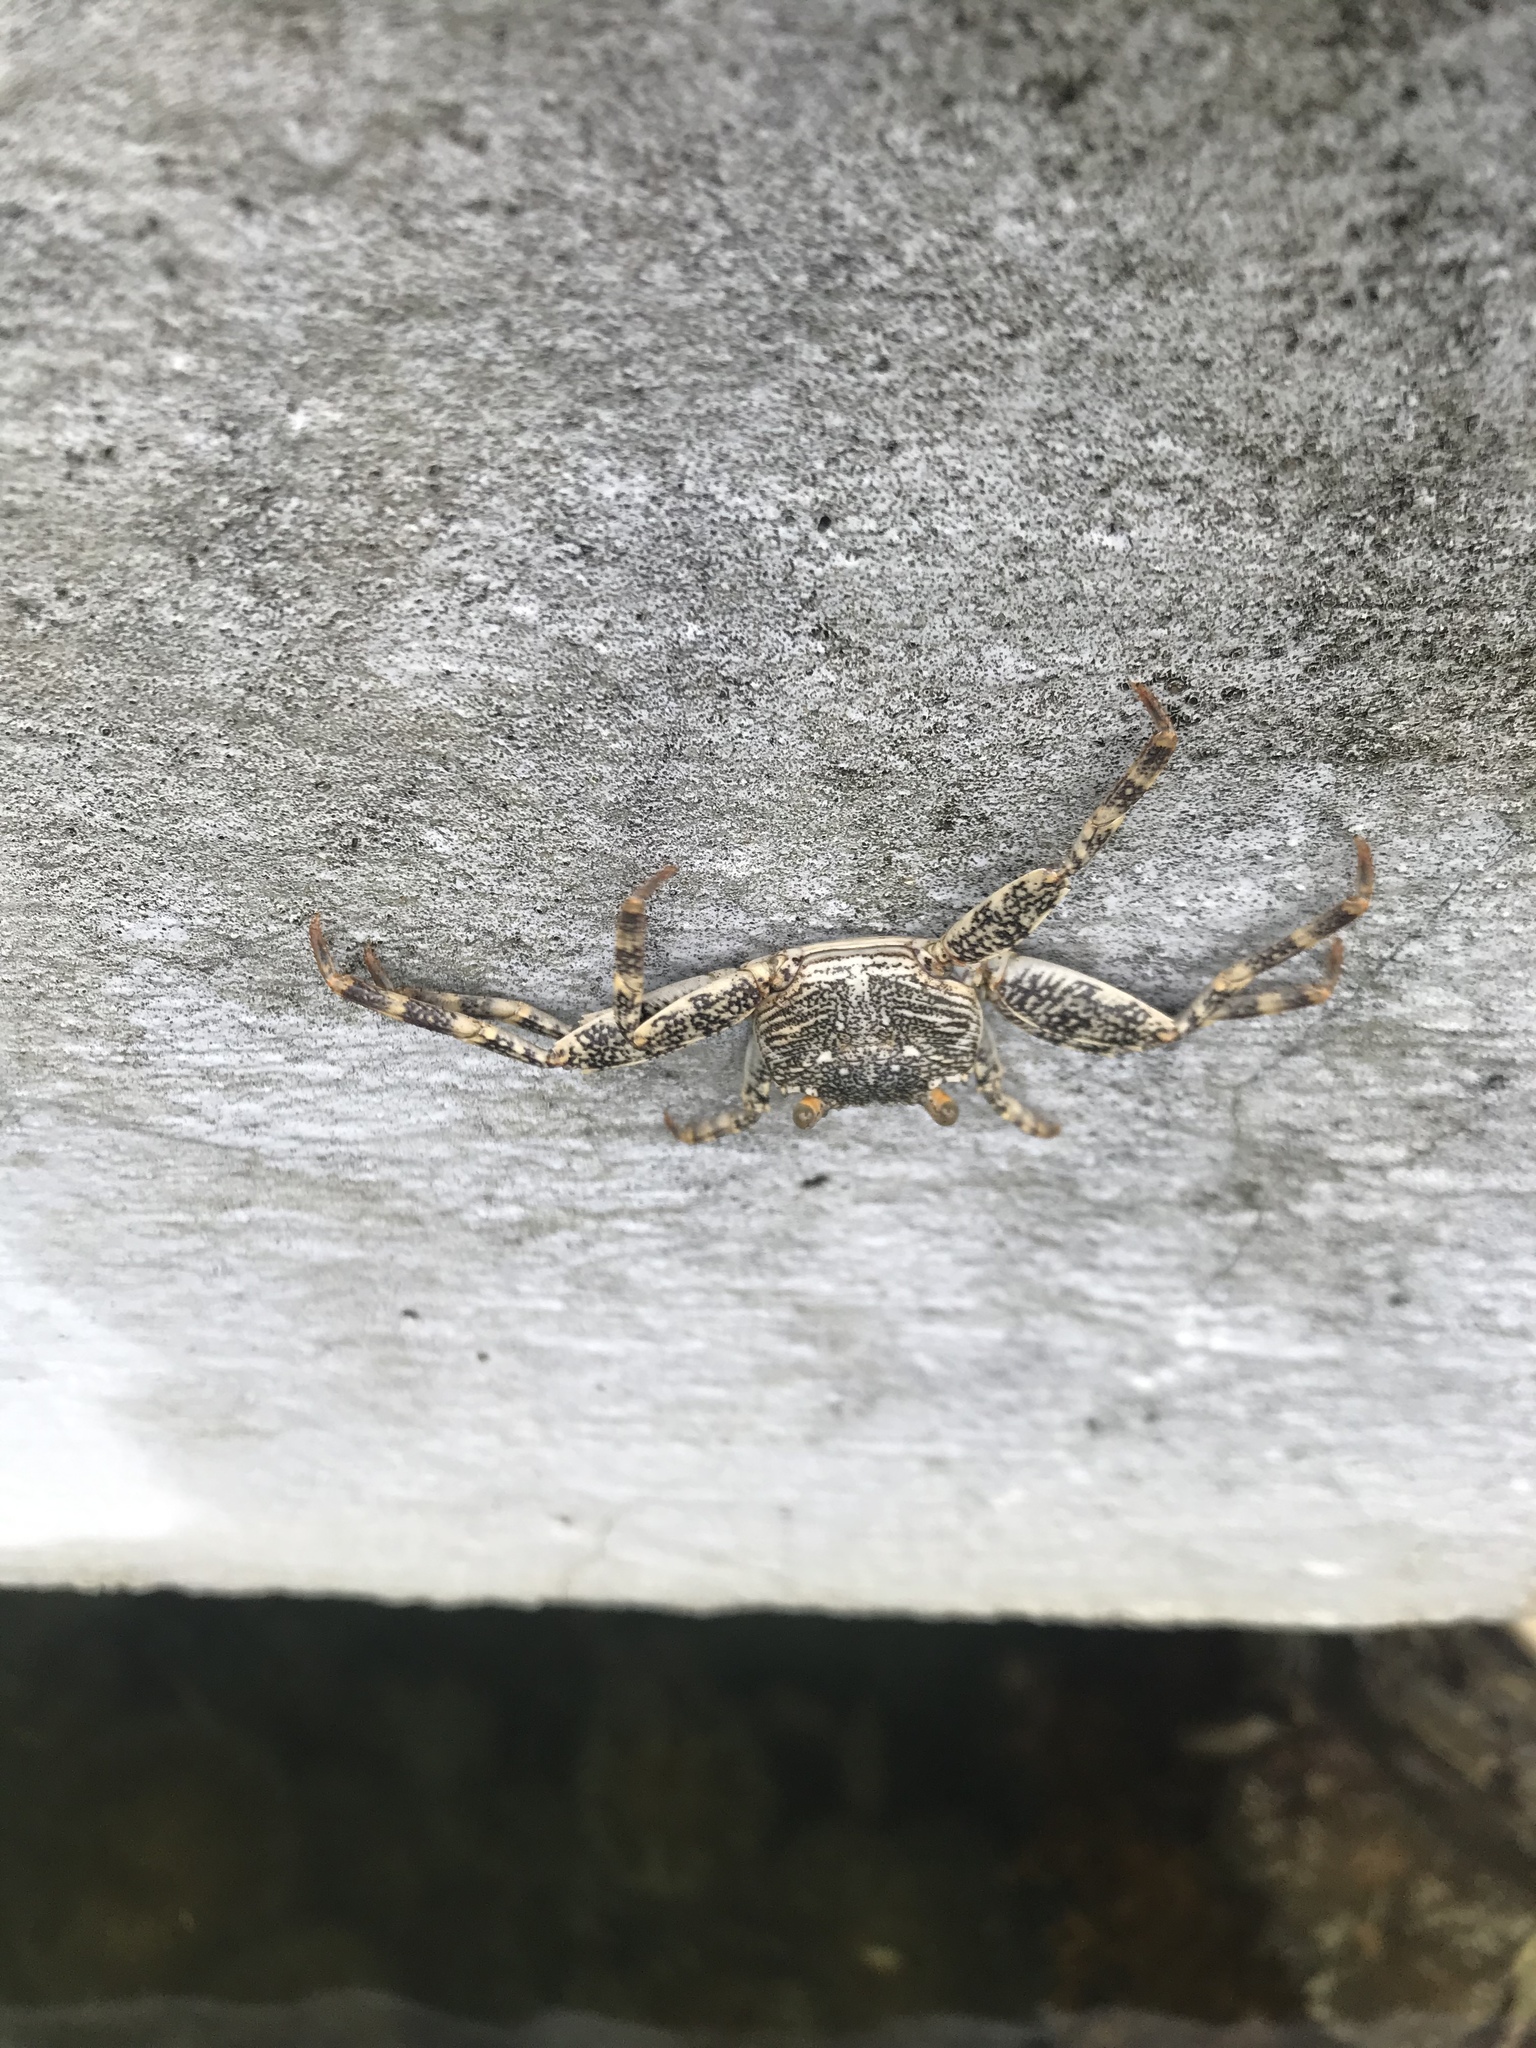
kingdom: Animalia
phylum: Arthropoda
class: Malacostraca
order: Decapoda
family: Grapsidae
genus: Grapsus
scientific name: Grapsus grapsus
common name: Sally lightfoot
